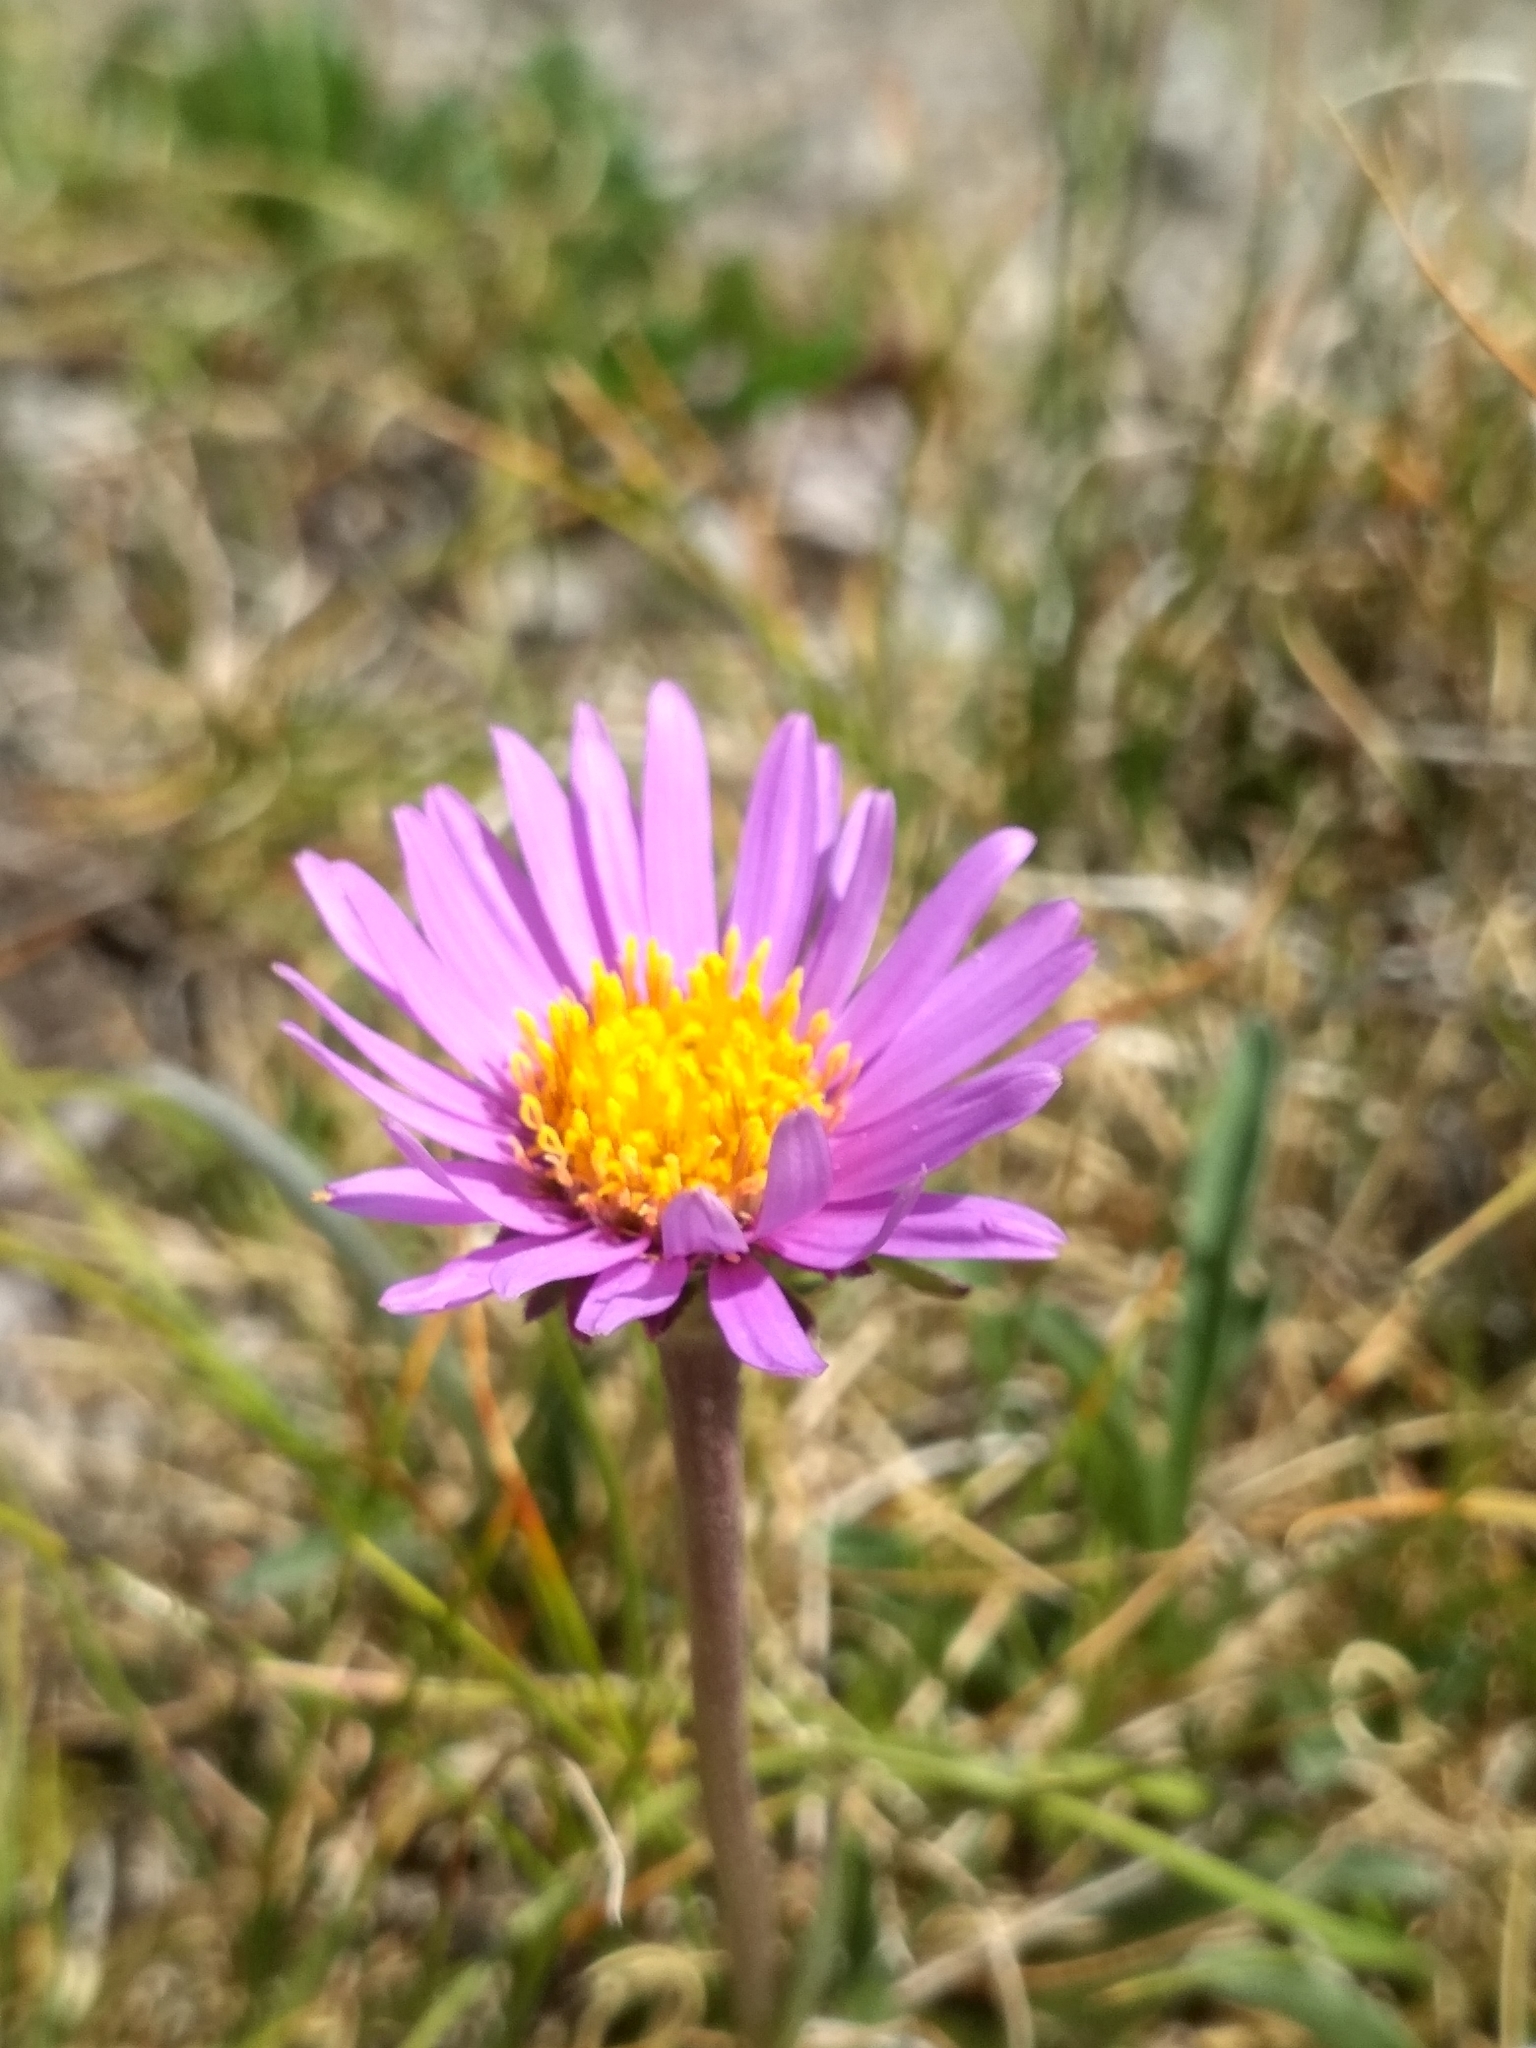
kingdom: Plantae
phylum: Tracheophyta
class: Magnoliopsida
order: Asterales
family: Asteraceae
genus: Aster
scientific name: Aster alpinus
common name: Alpine aster
